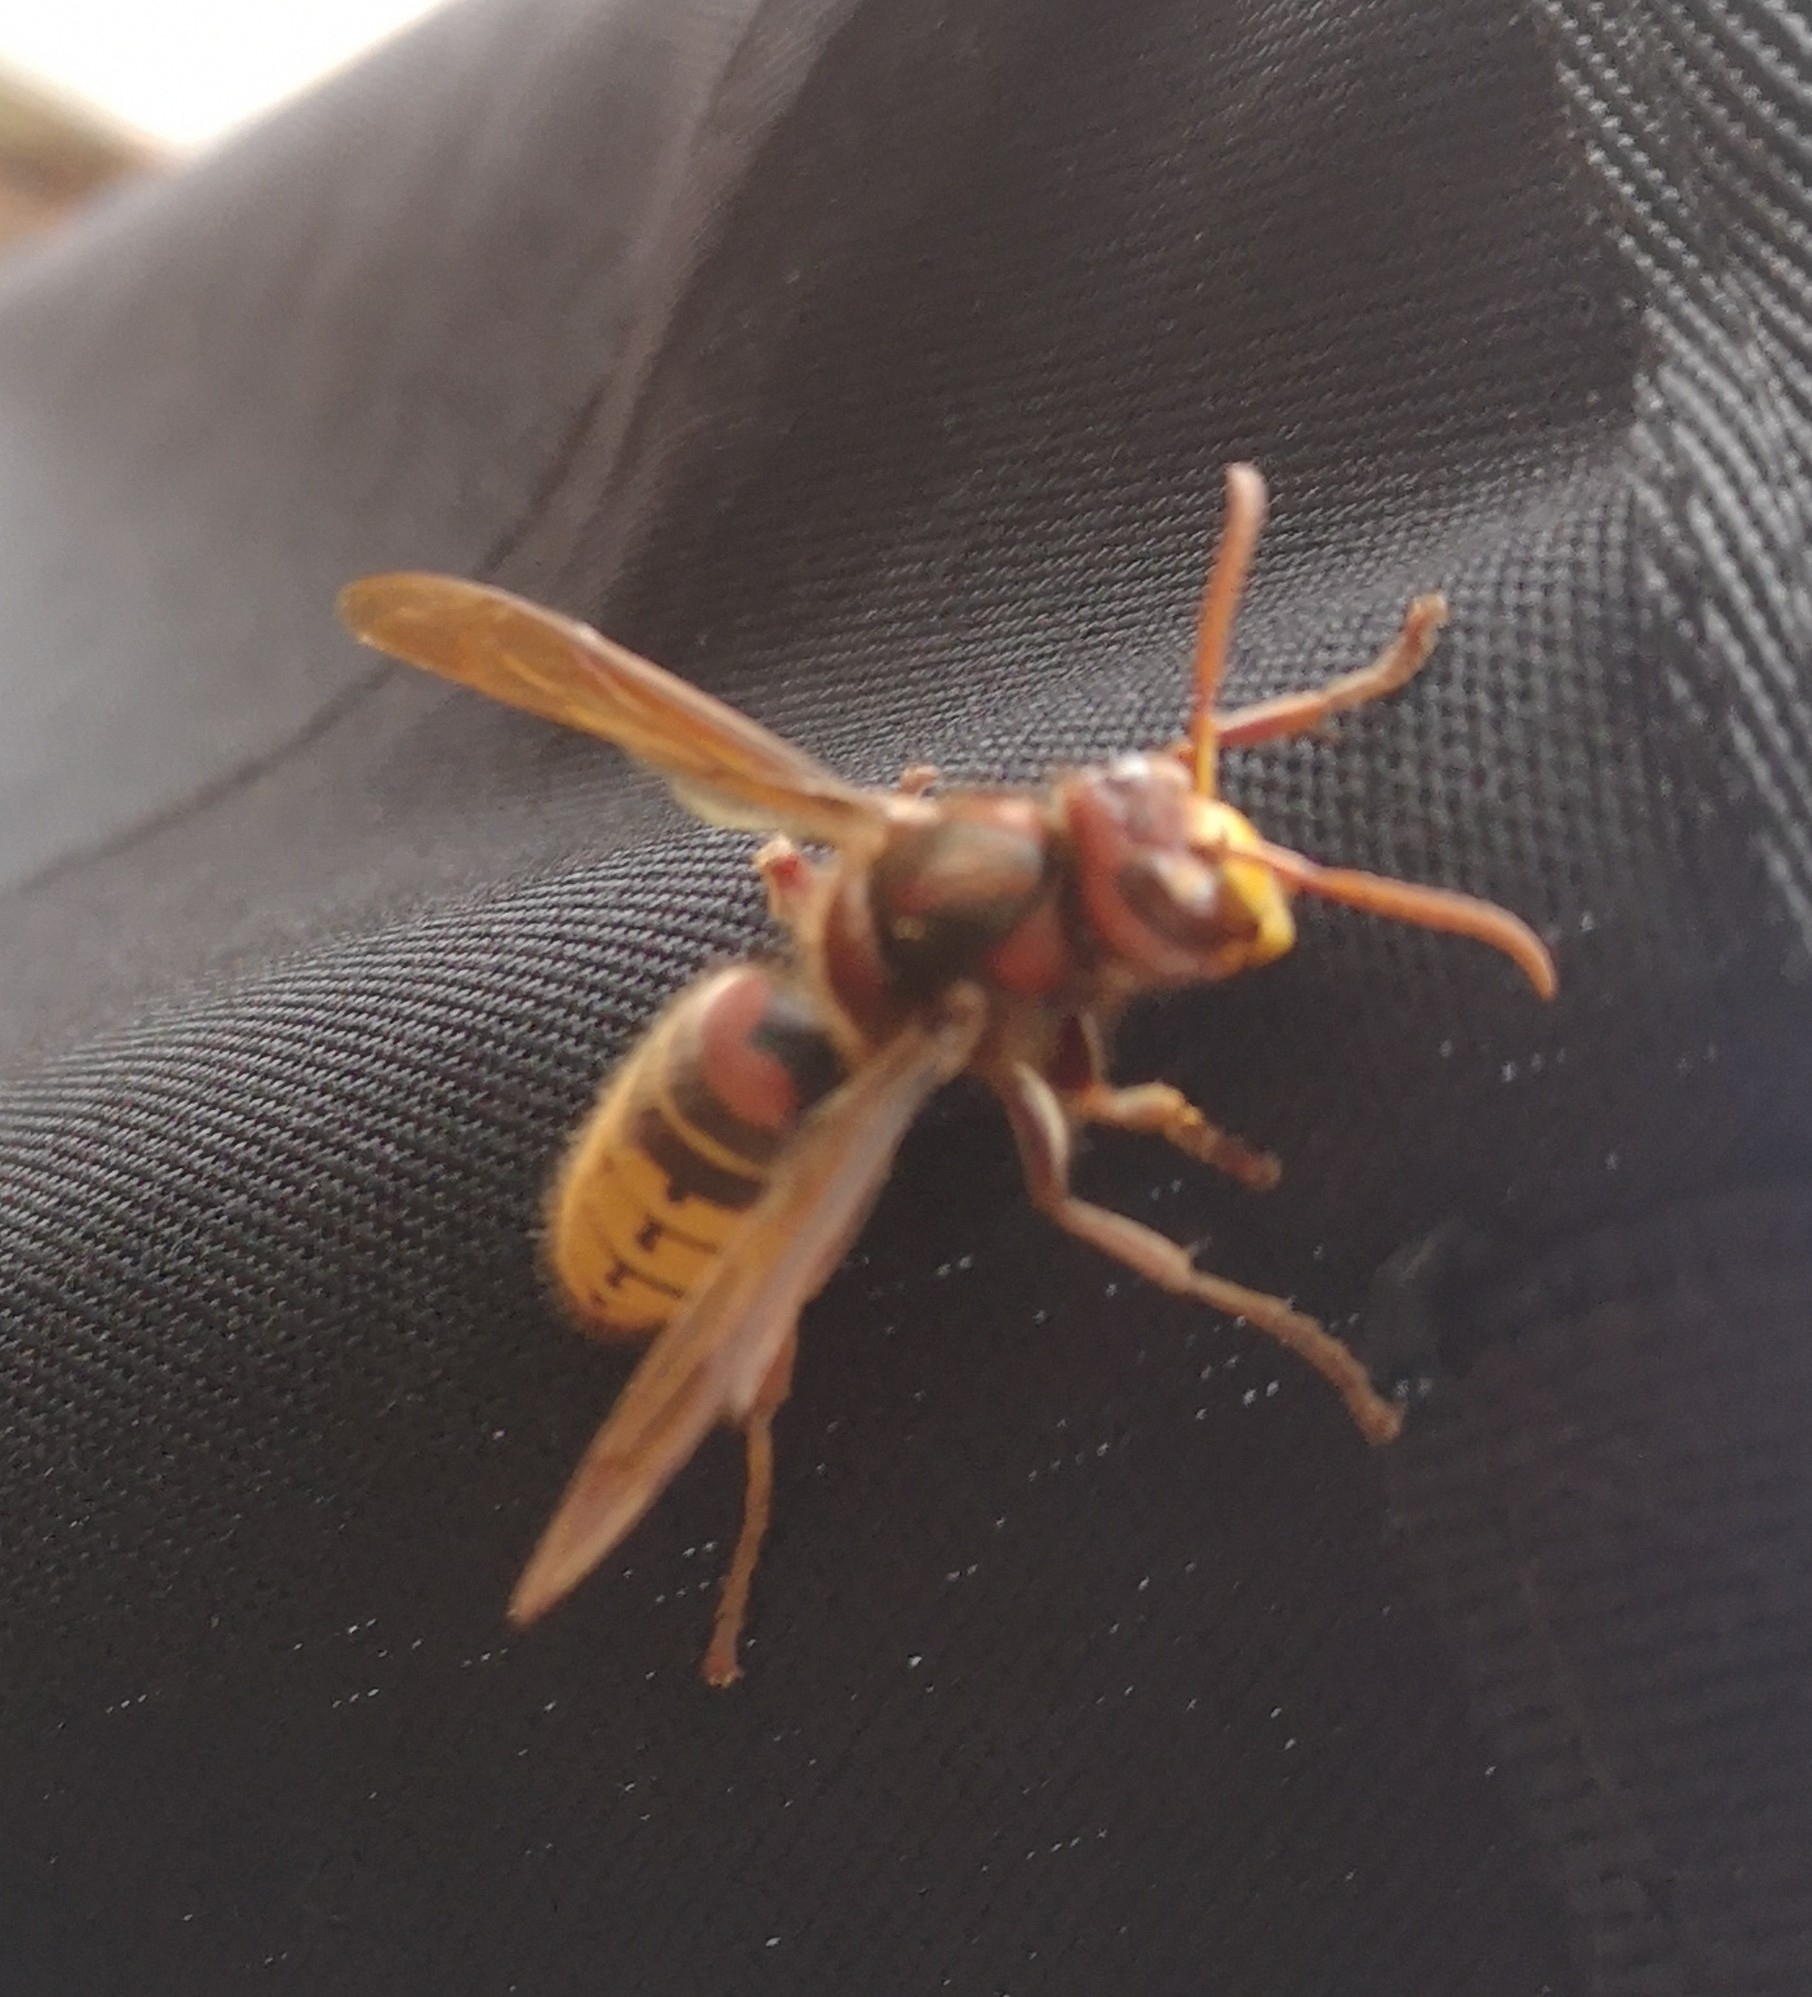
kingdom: Animalia
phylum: Arthropoda
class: Insecta
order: Hymenoptera
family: Vespidae
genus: Vespa
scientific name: Vespa crabro
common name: Hornet
